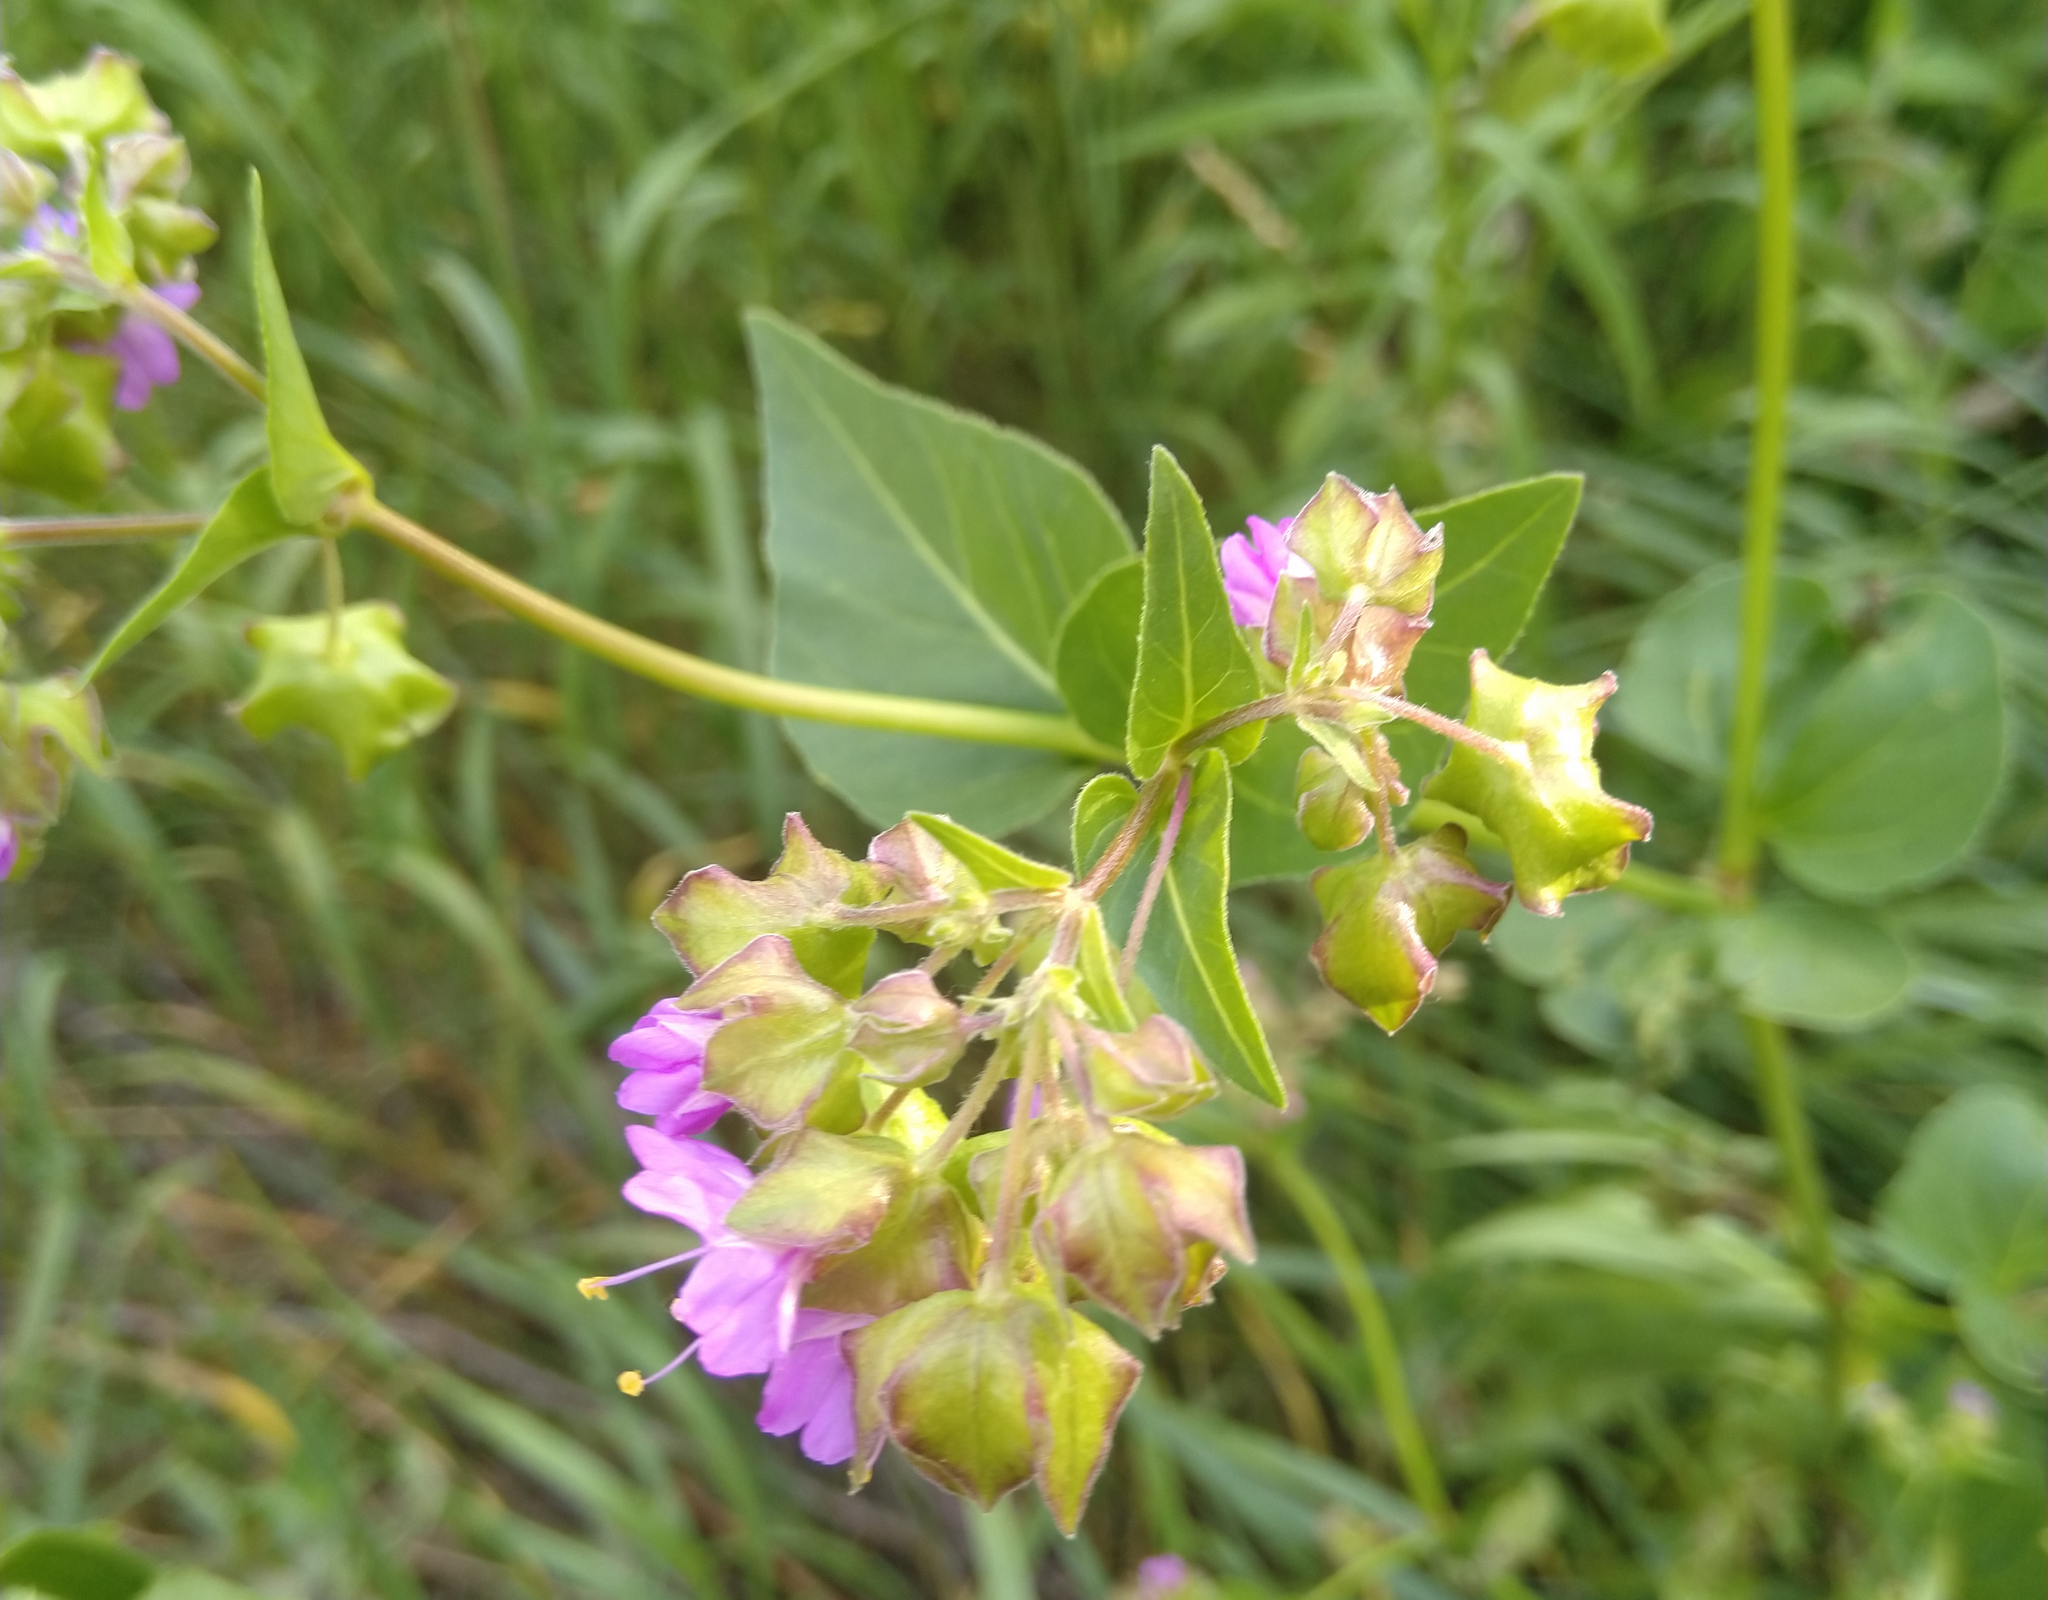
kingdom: Plantae
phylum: Tracheophyta
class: Magnoliopsida
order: Caryophyllales
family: Nyctaginaceae
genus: Mirabilis
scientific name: Mirabilis nyctaginea
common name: Umbrella wort
